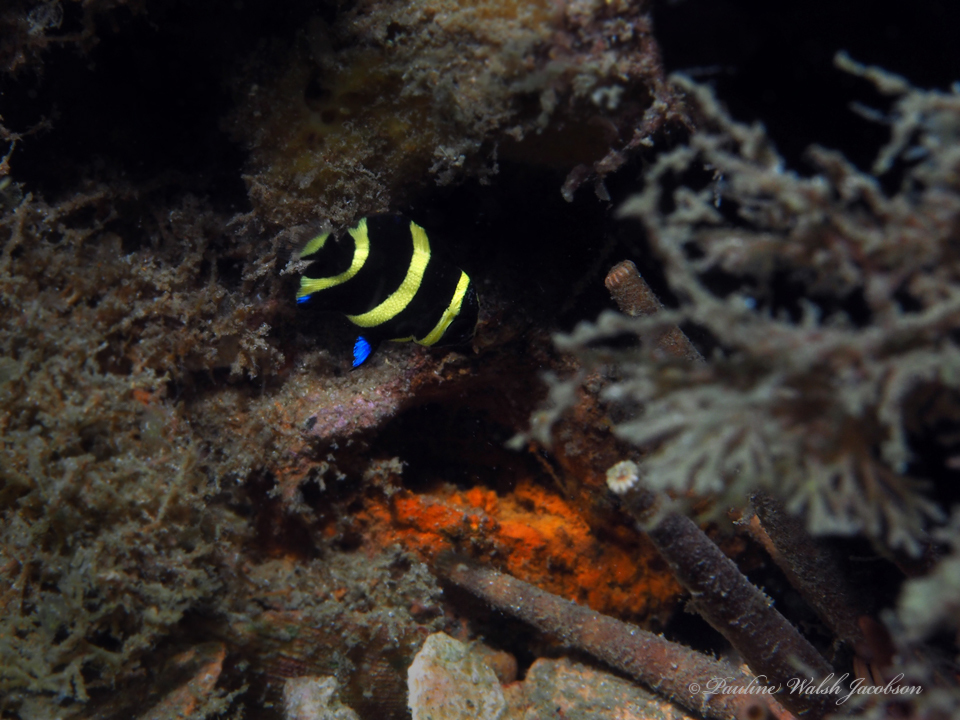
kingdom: Animalia
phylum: Chordata
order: Perciformes
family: Pomacanthidae
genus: Pomacanthus
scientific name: Pomacanthus arcuatus
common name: Gray angelfish
